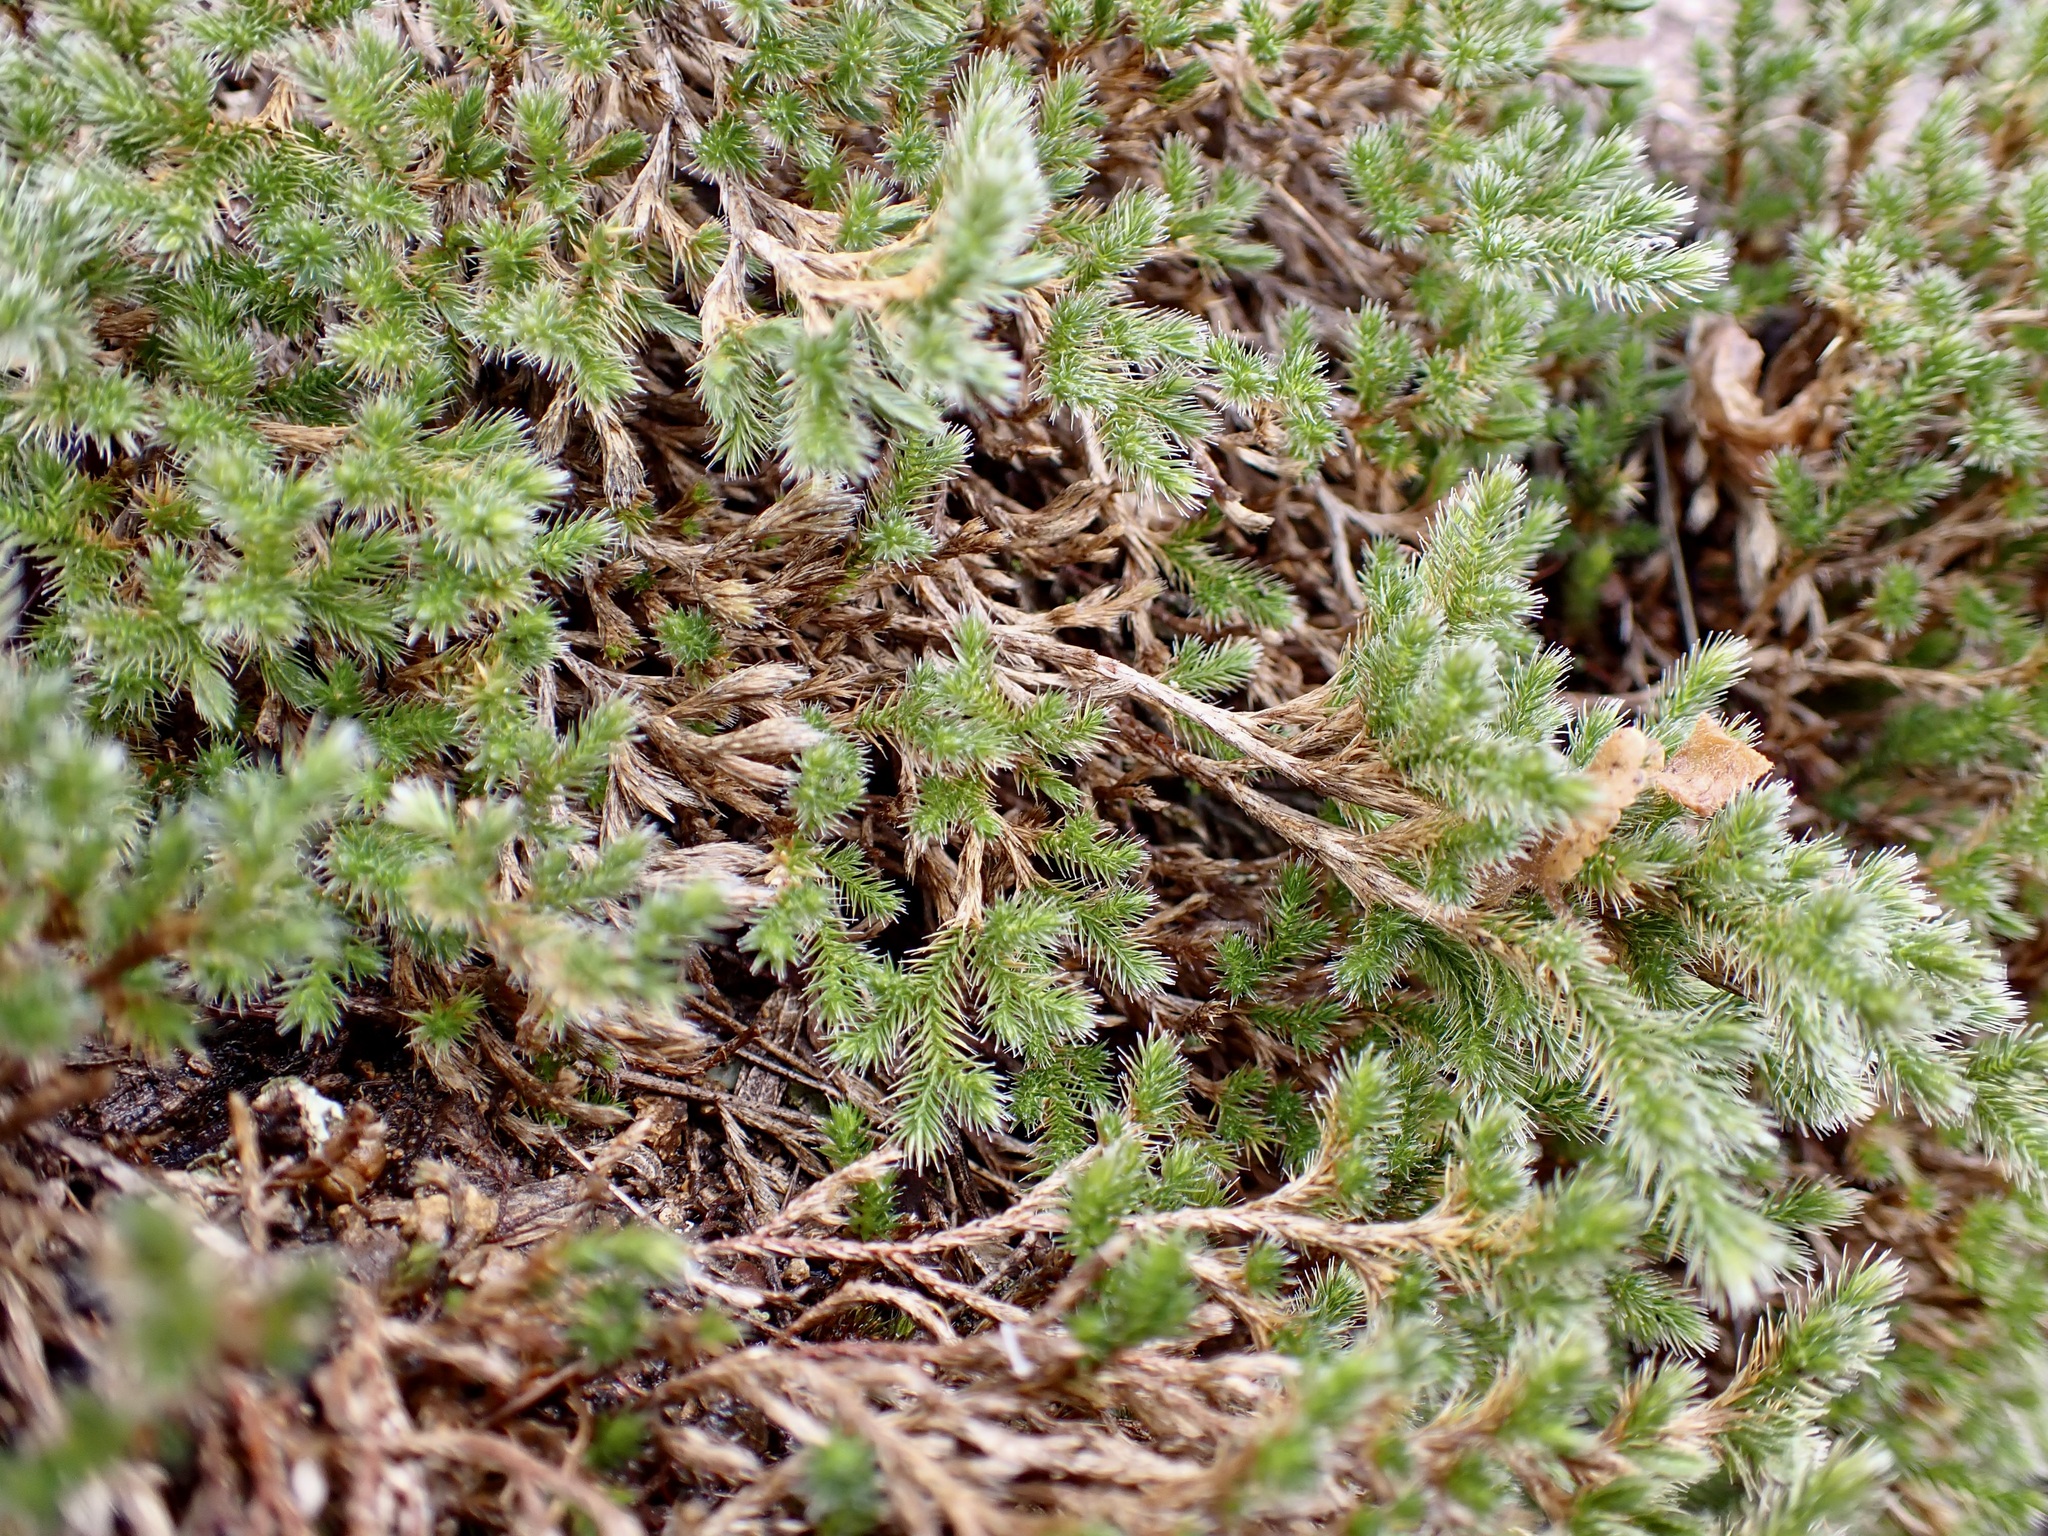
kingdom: Plantae
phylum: Tracheophyta
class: Lycopodiopsida
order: Selaginellales
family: Selaginellaceae
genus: Selaginella
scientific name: Selaginella rupincola
